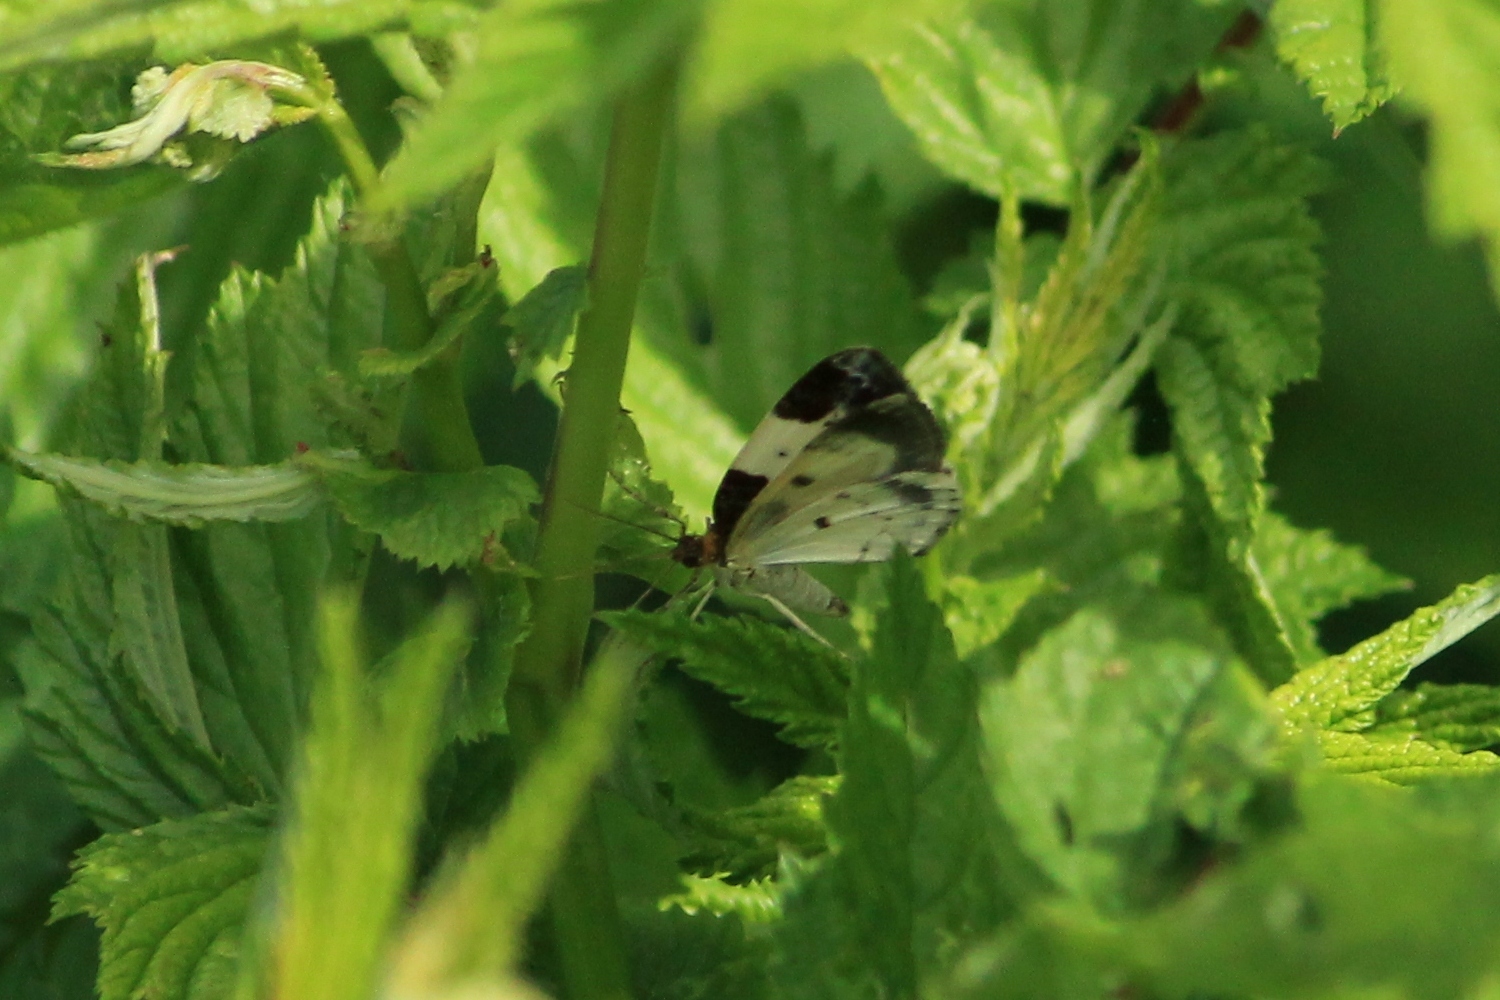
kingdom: Animalia
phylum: Arthropoda
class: Insecta
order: Lepidoptera
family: Geometridae
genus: Mesoleuca
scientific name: Mesoleuca albicillata
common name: Beautiful carpet
